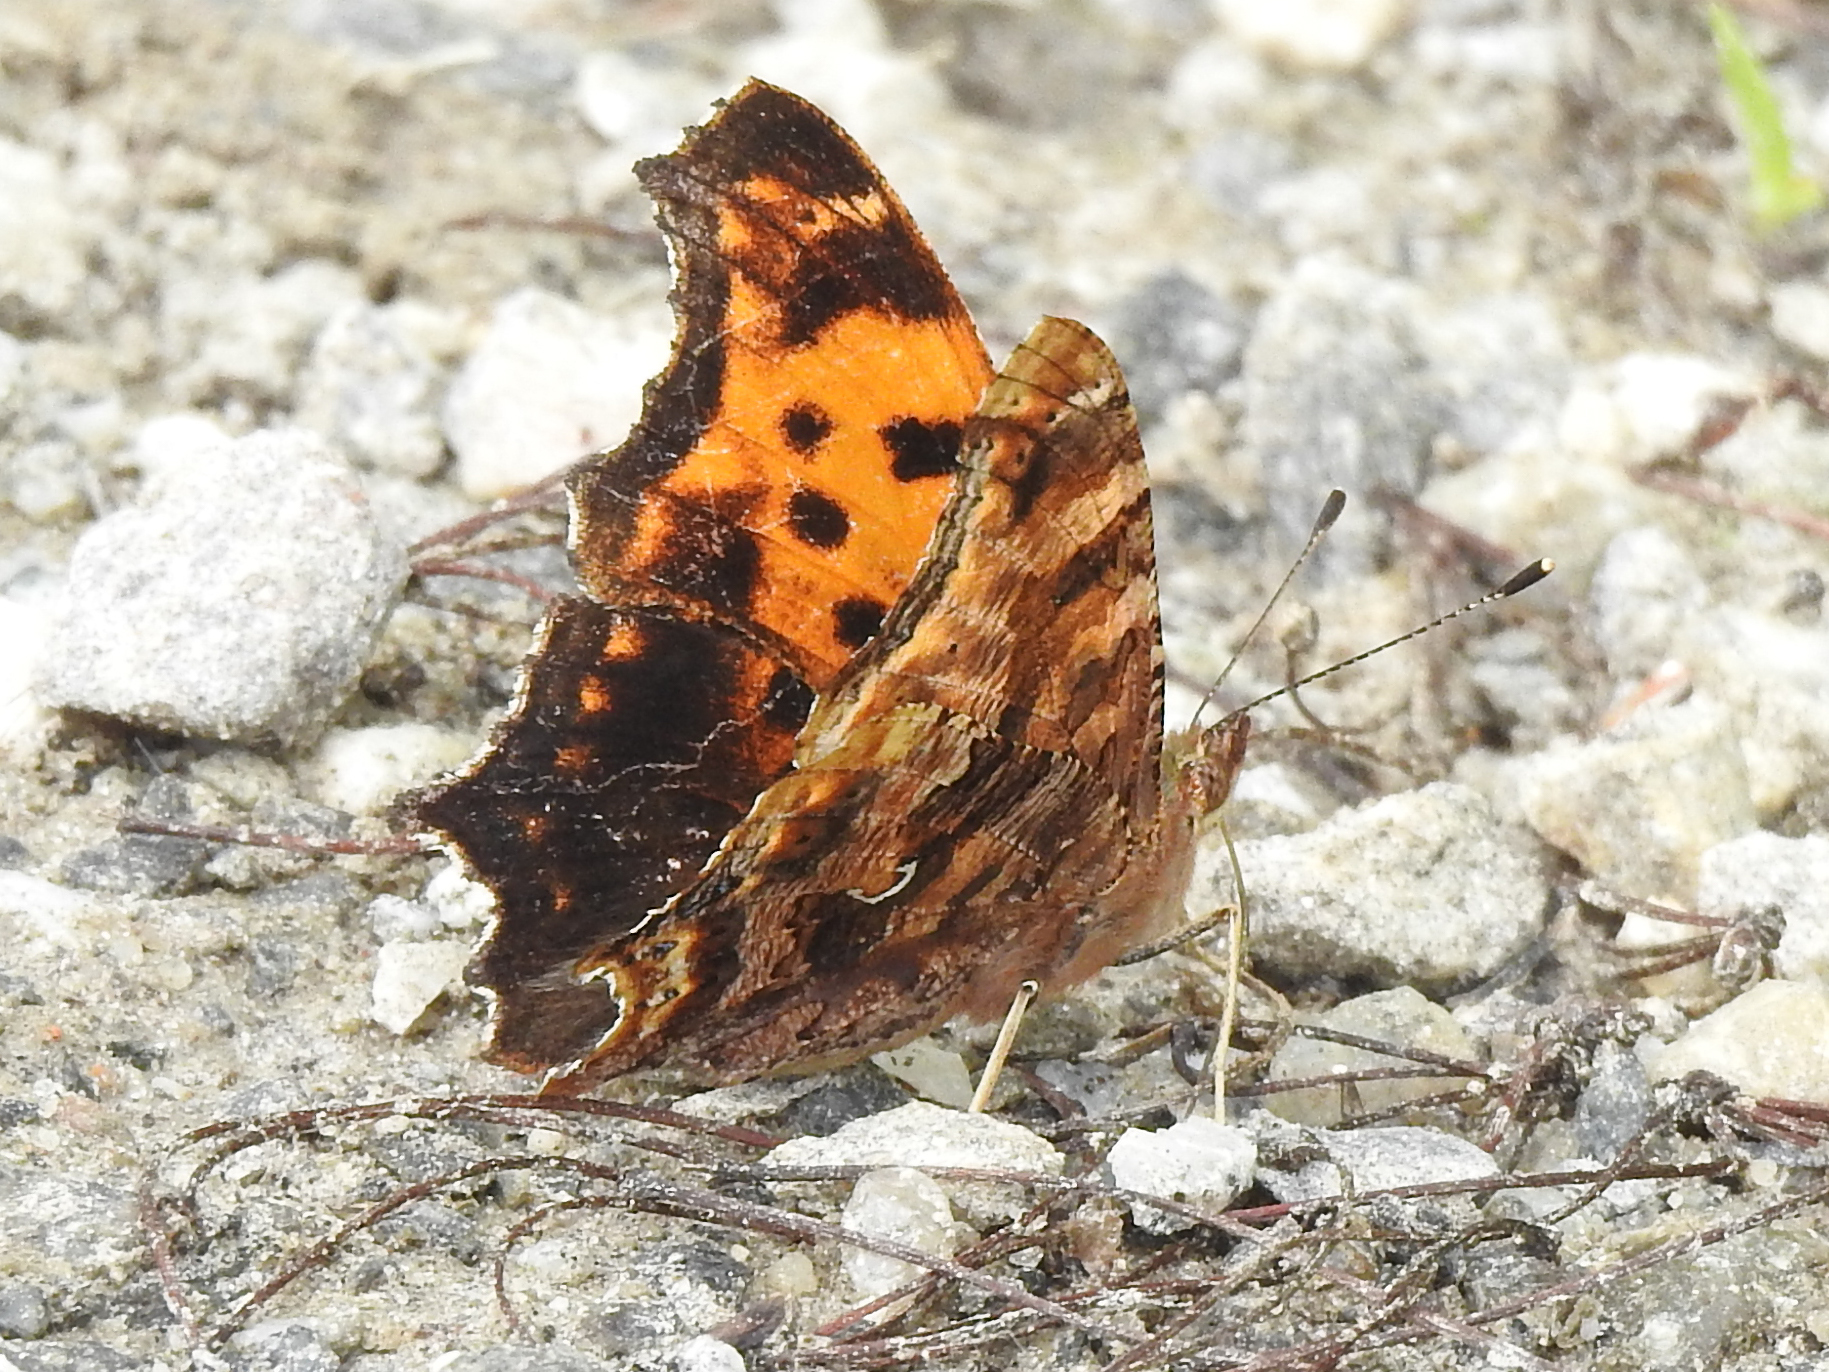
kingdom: Animalia
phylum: Arthropoda
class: Insecta
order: Lepidoptera
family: Nymphalidae
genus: Polygonia
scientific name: Polygonia comma
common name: Eastern comma
